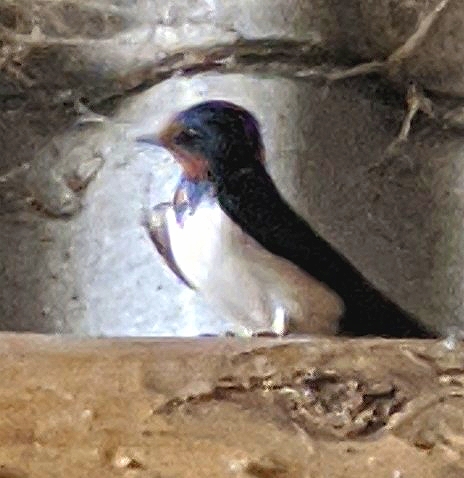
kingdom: Animalia
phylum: Chordata
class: Aves
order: Passeriformes
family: Hirundinidae
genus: Hirundo
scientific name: Hirundo rustica
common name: Barn swallow
